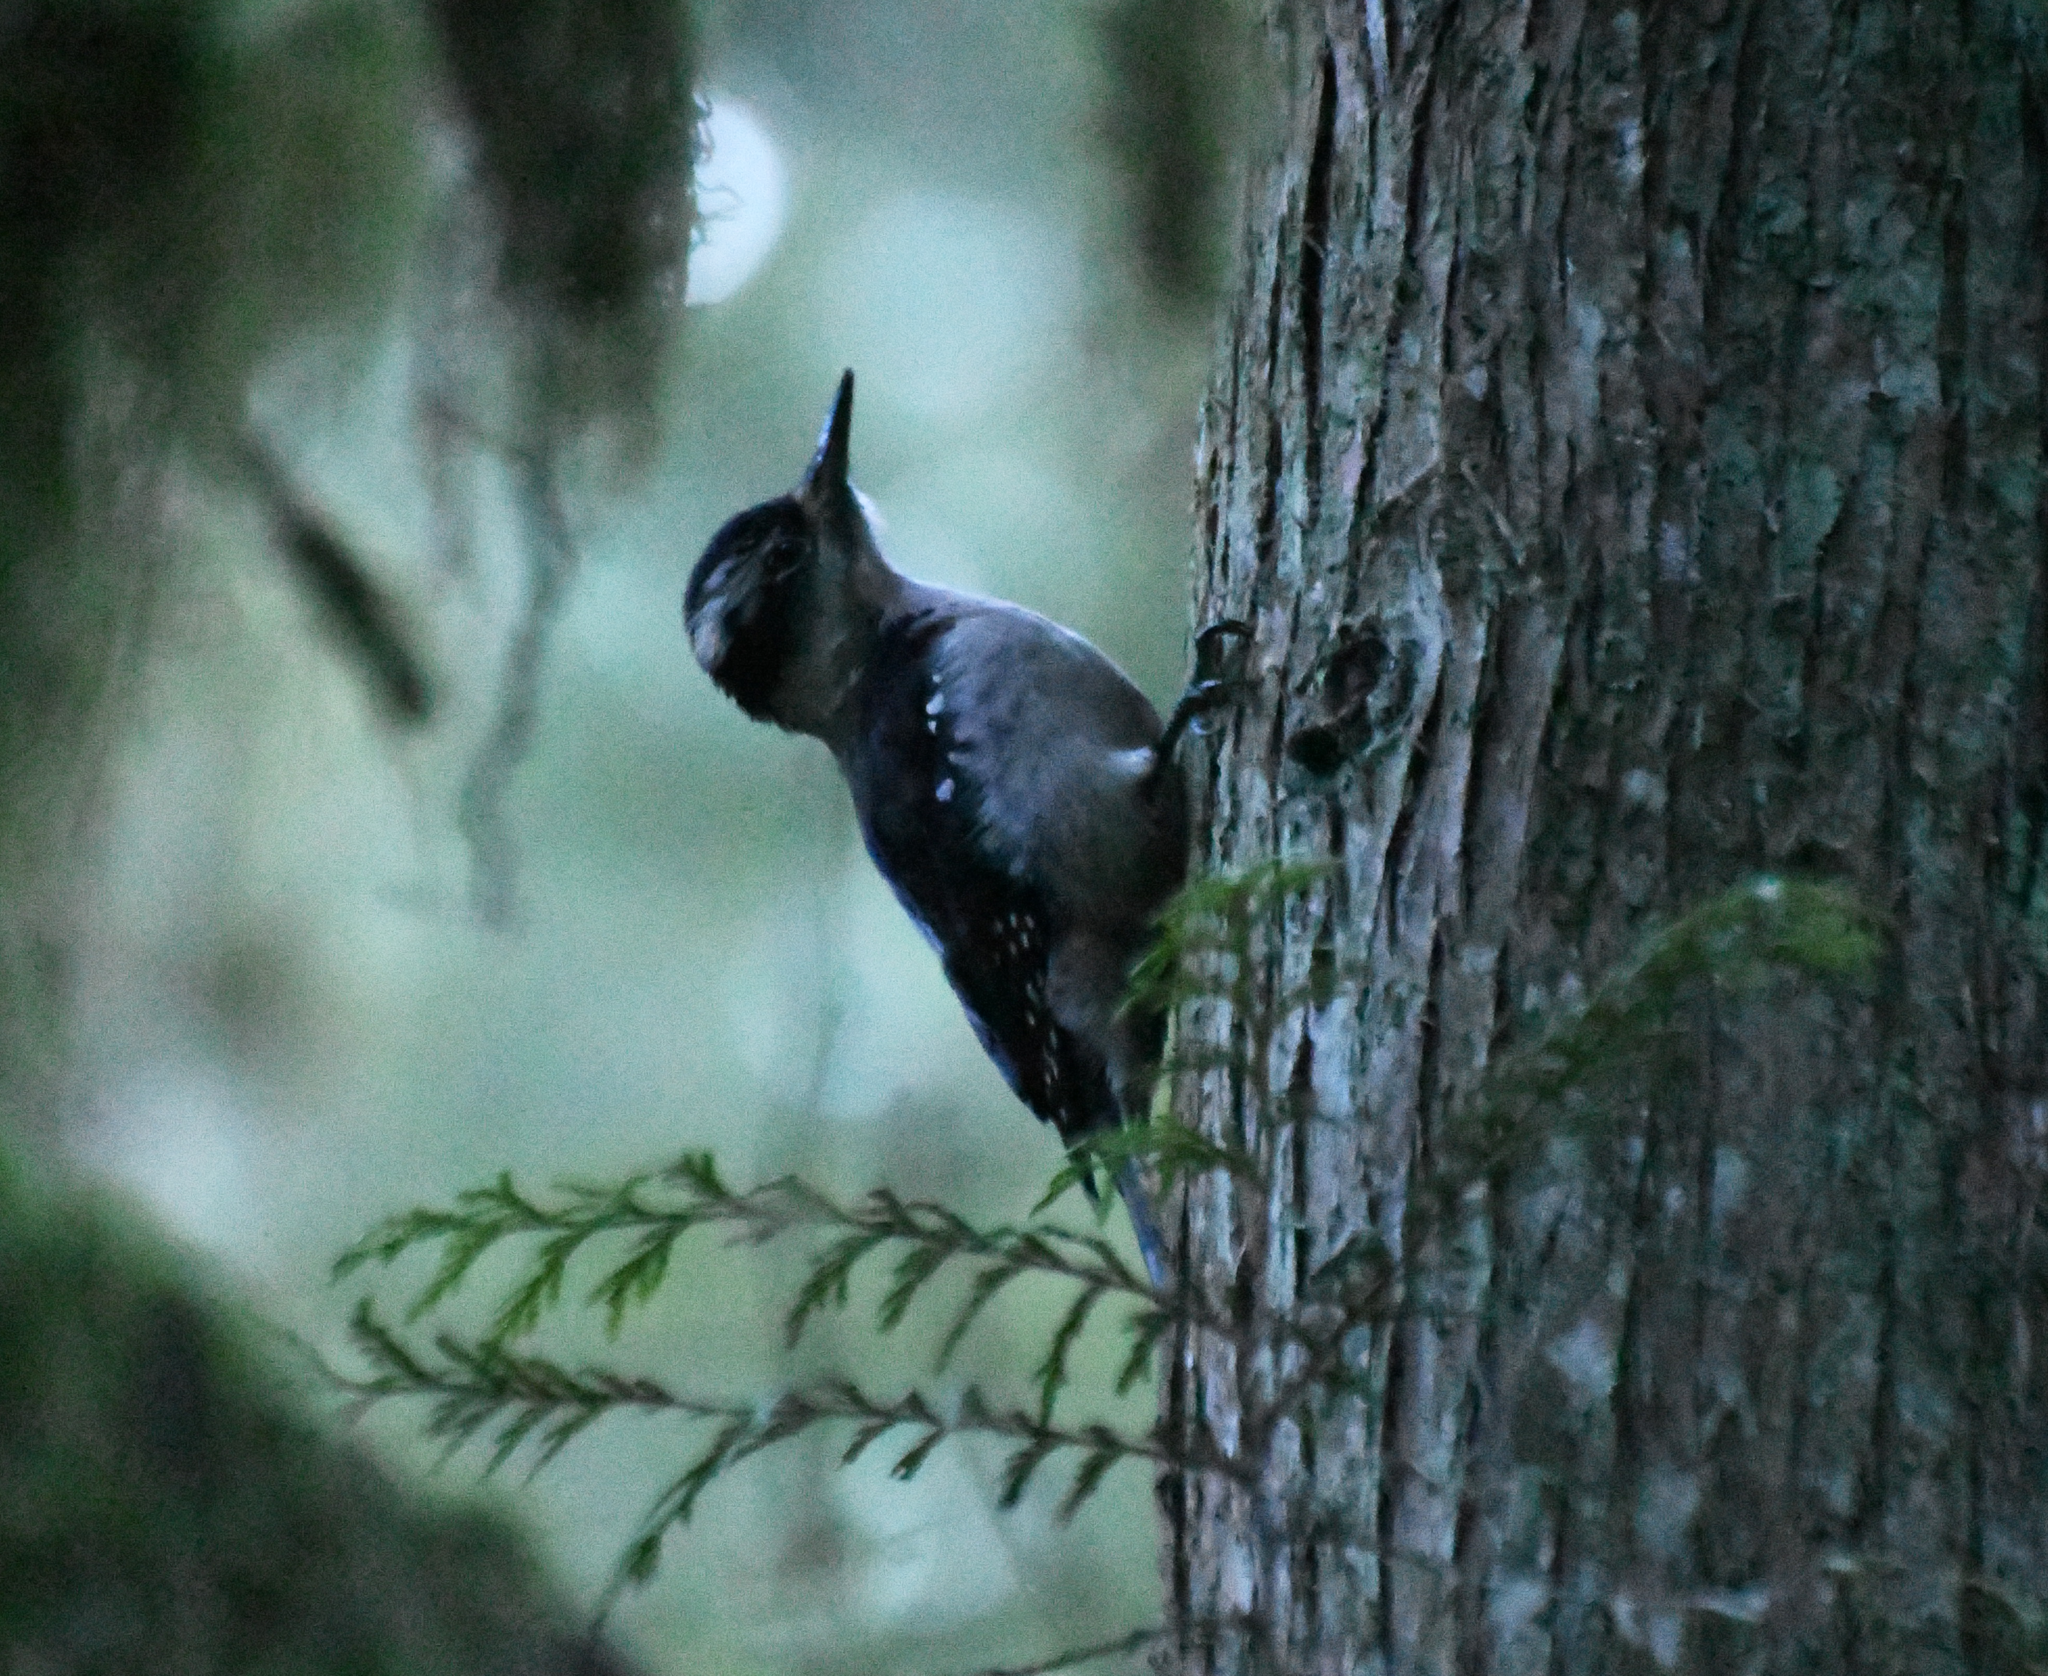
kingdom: Animalia
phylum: Chordata
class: Aves
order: Piciformes
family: Picidae
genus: Leuconotopicus
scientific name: Leuconotopicus villosus
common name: Hairy woodpecker
